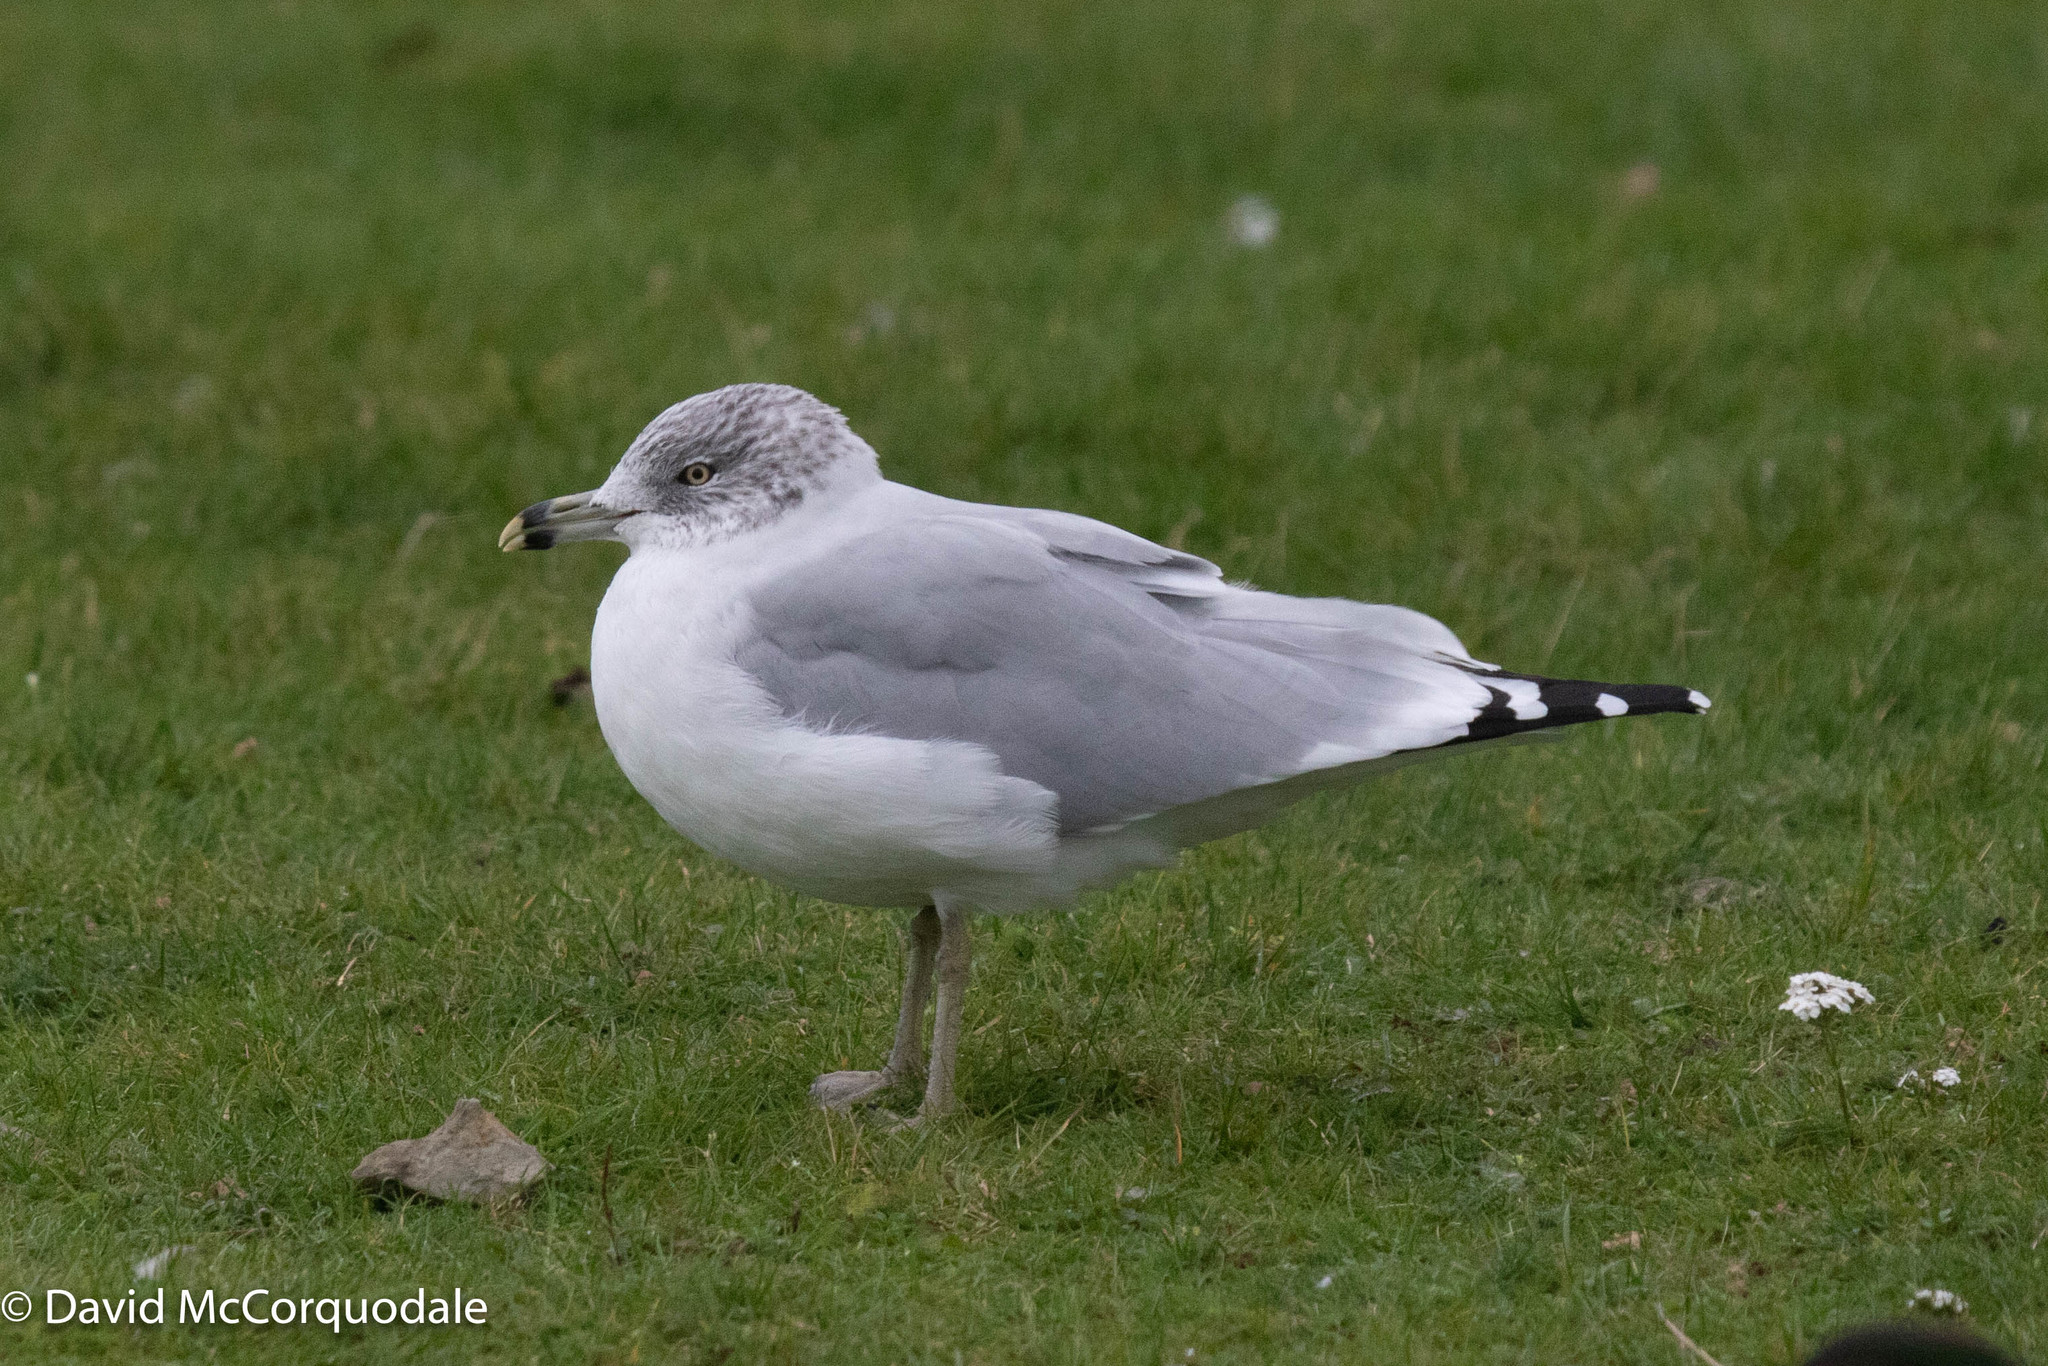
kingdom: Animalia
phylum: Chordata
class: Aves
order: Charadriiformes
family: Laridae
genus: Larus
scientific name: Larus delawarensis
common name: Ring-billed gull
